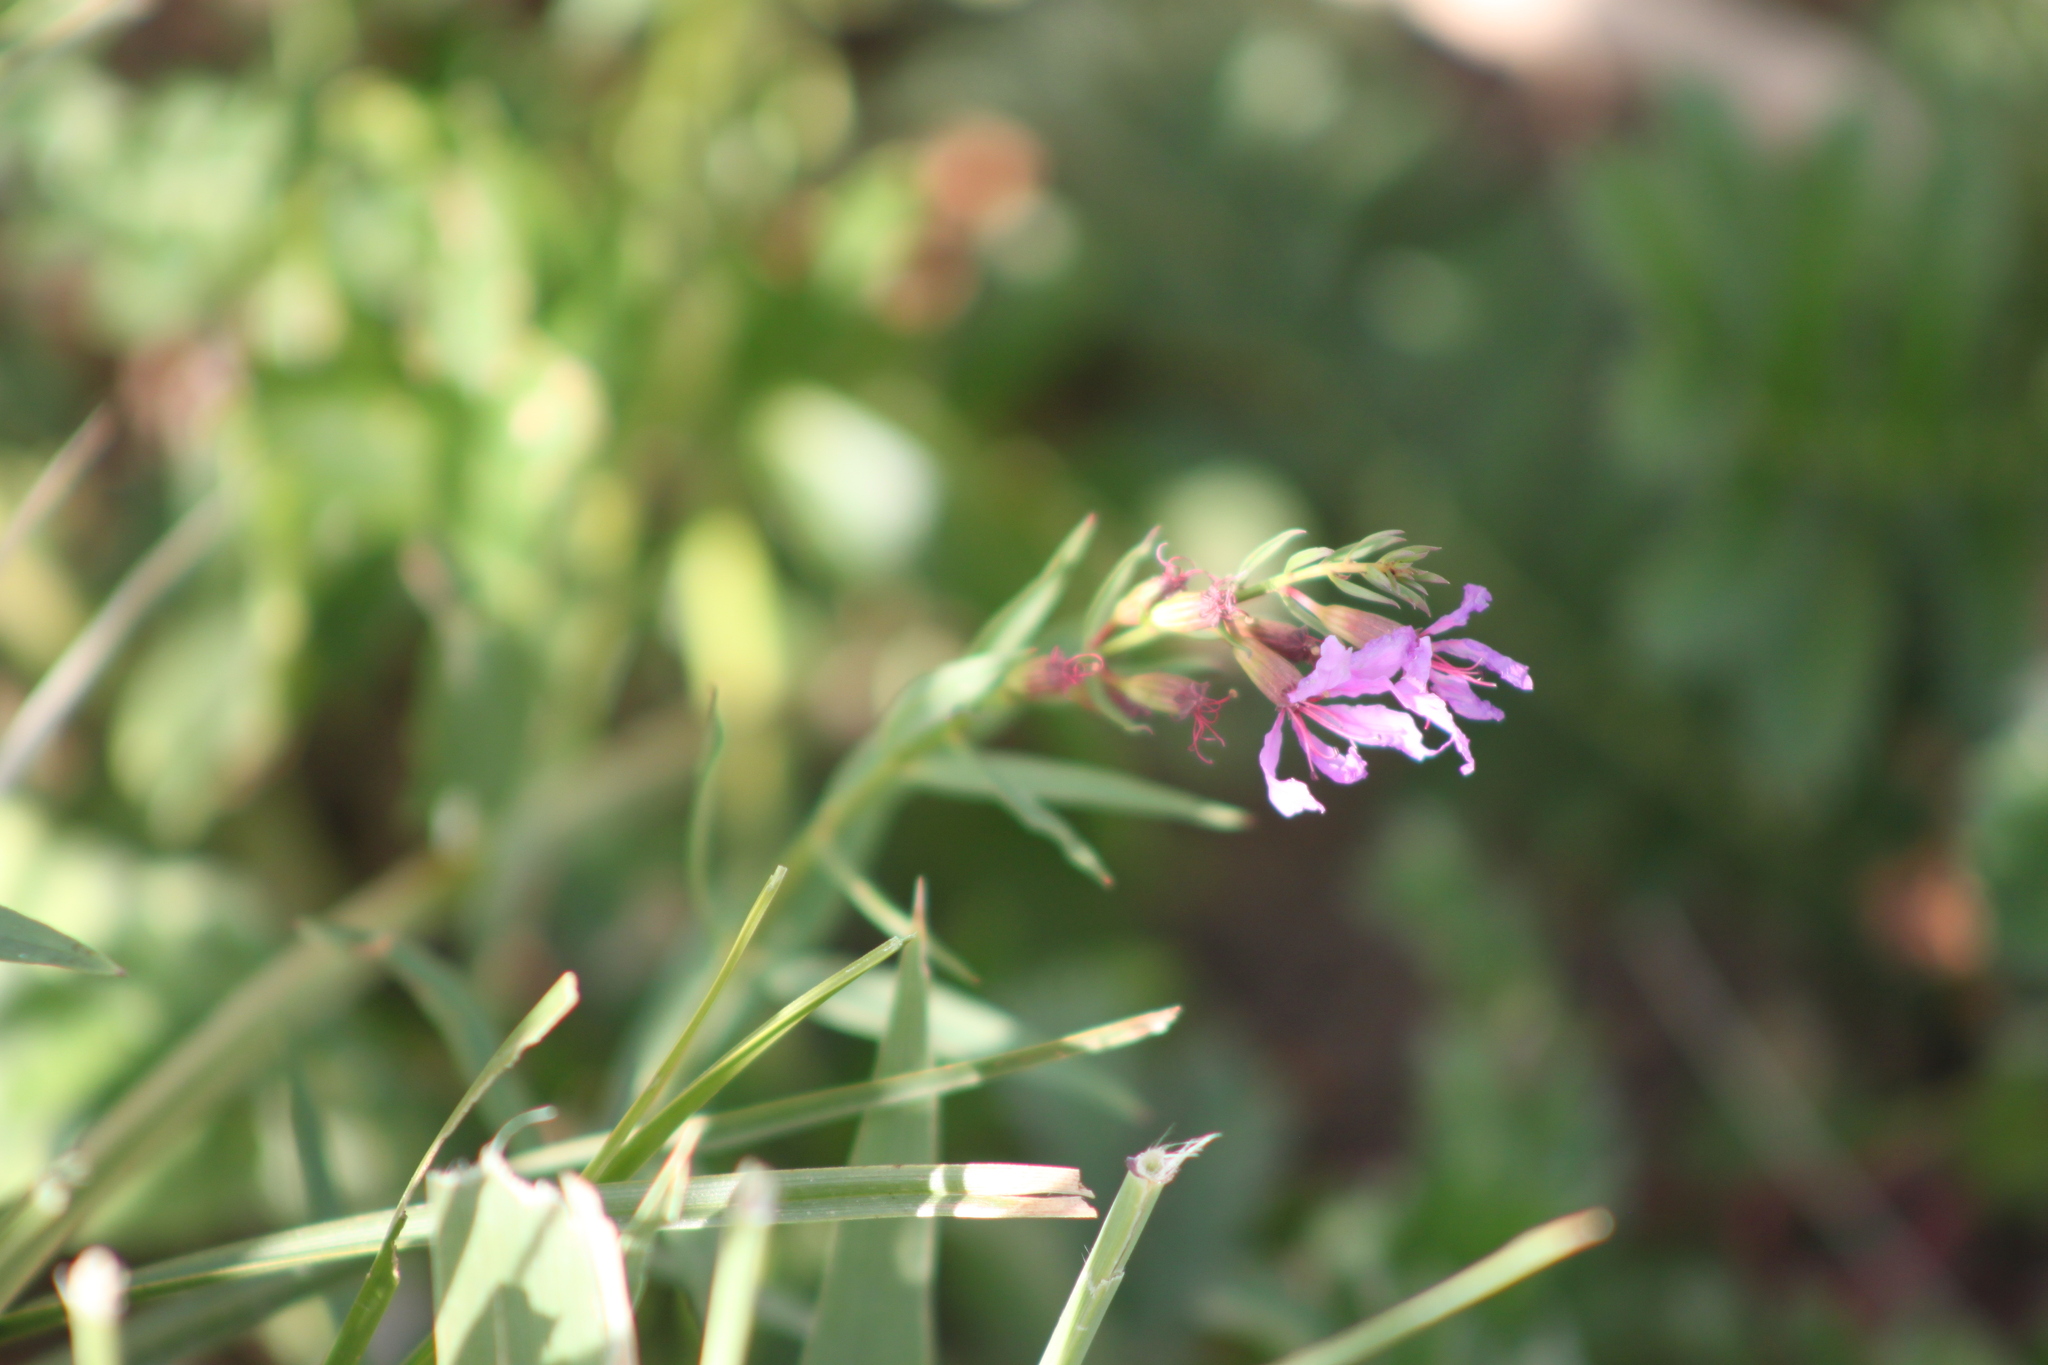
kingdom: Plantae
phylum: Tracheophyta
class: Magnoliopsida
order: Myrtales
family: Lythraceae
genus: Lythrum
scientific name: Lythrum virgatum
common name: European wand loosestrife
